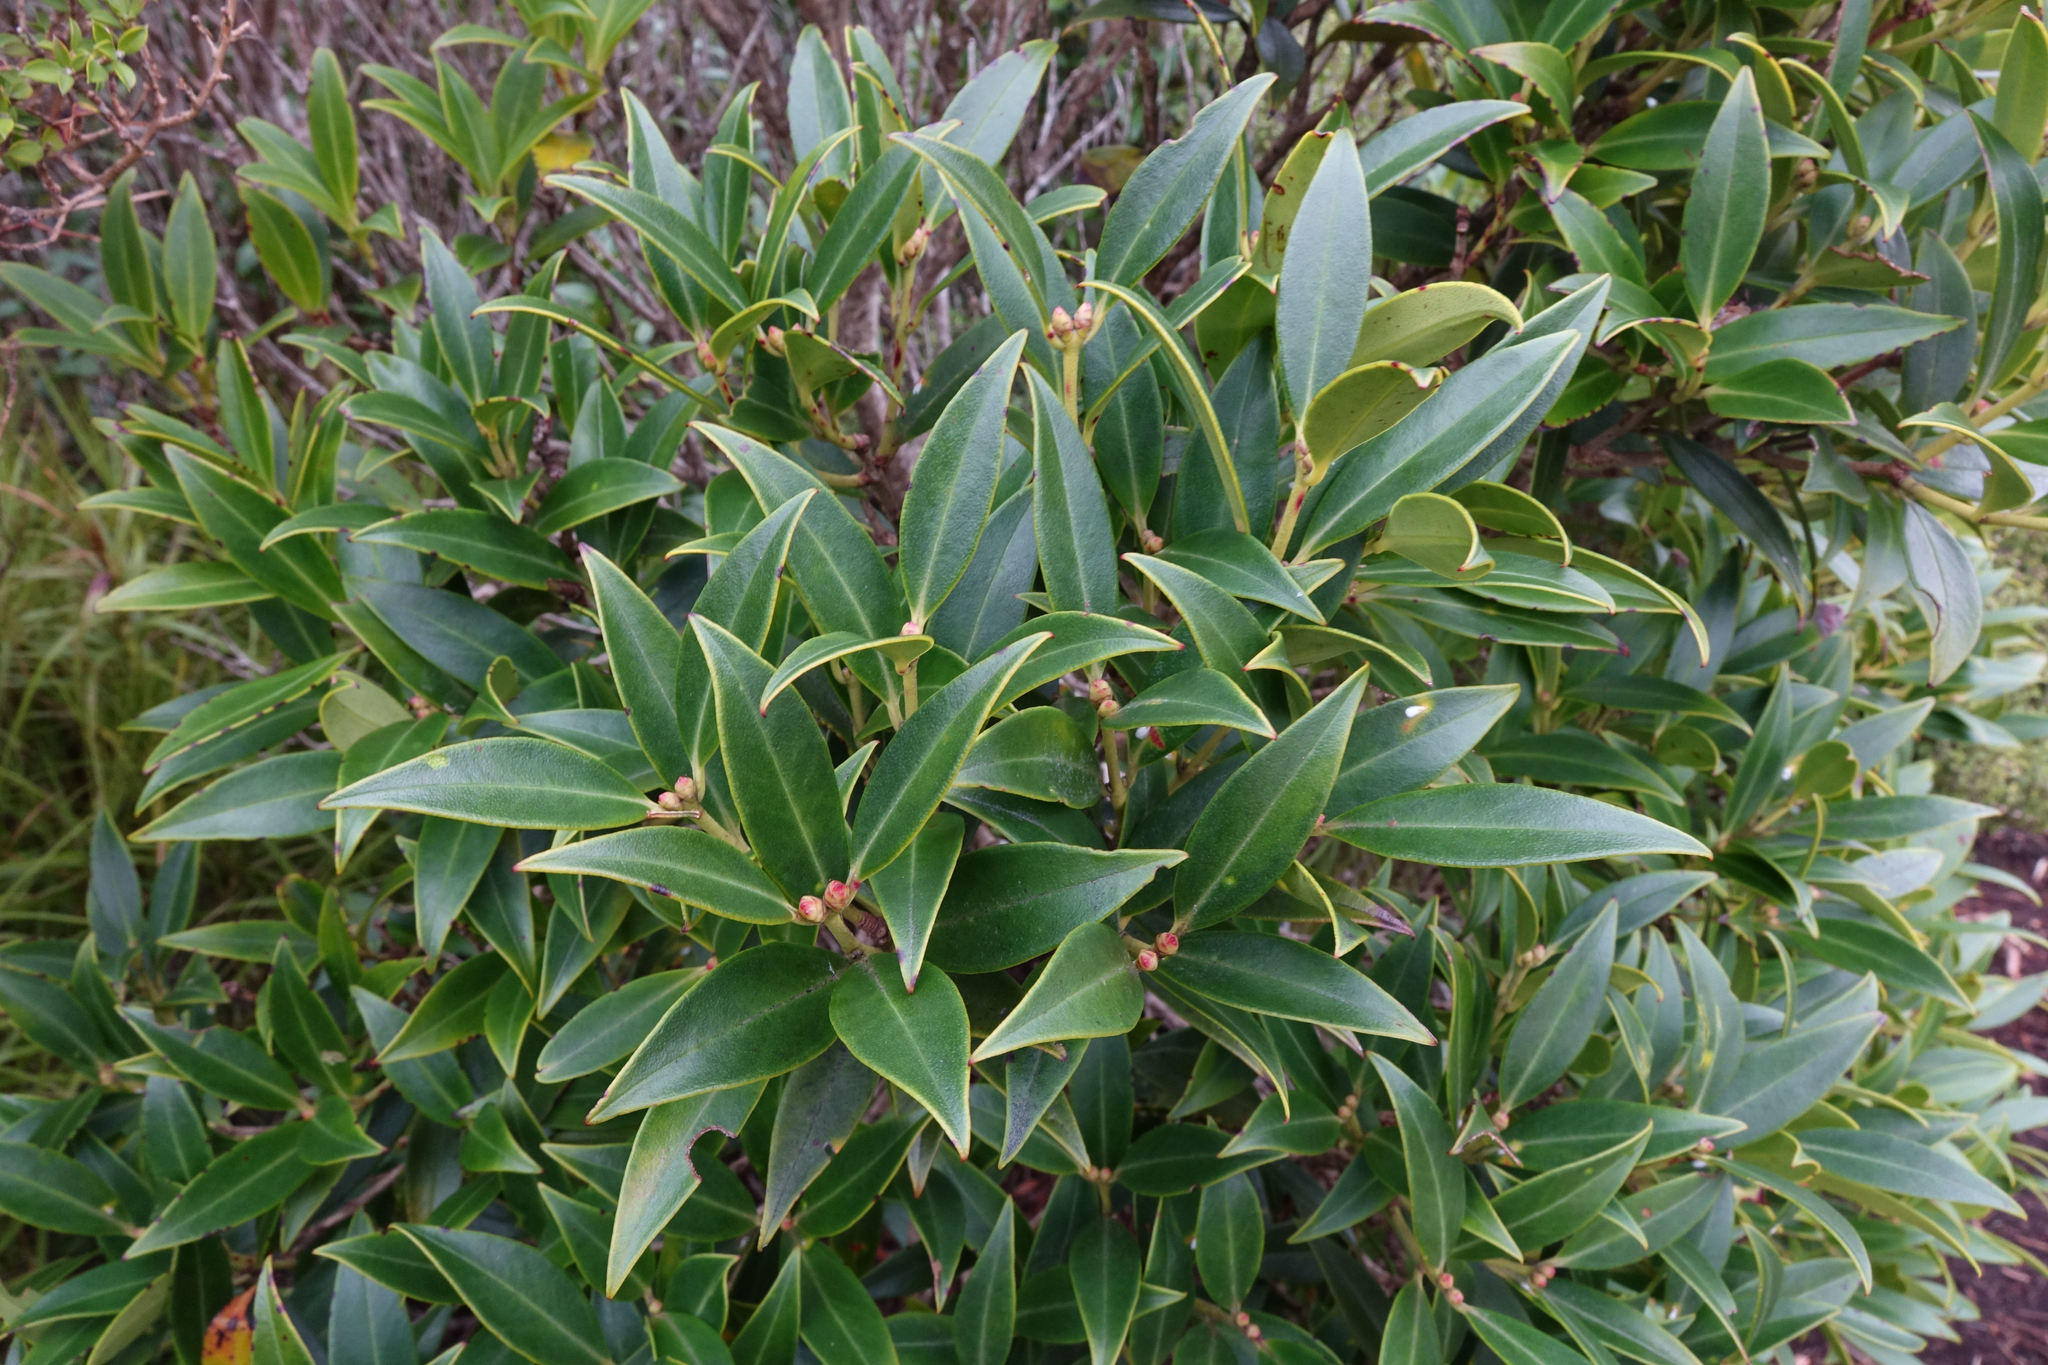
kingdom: Plantae
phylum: Tracheophyta
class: Magnoliopsida
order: Myrtales
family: Myrtaceae
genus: Metrosideros
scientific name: Metrosideros umbellata
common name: Southern rata
